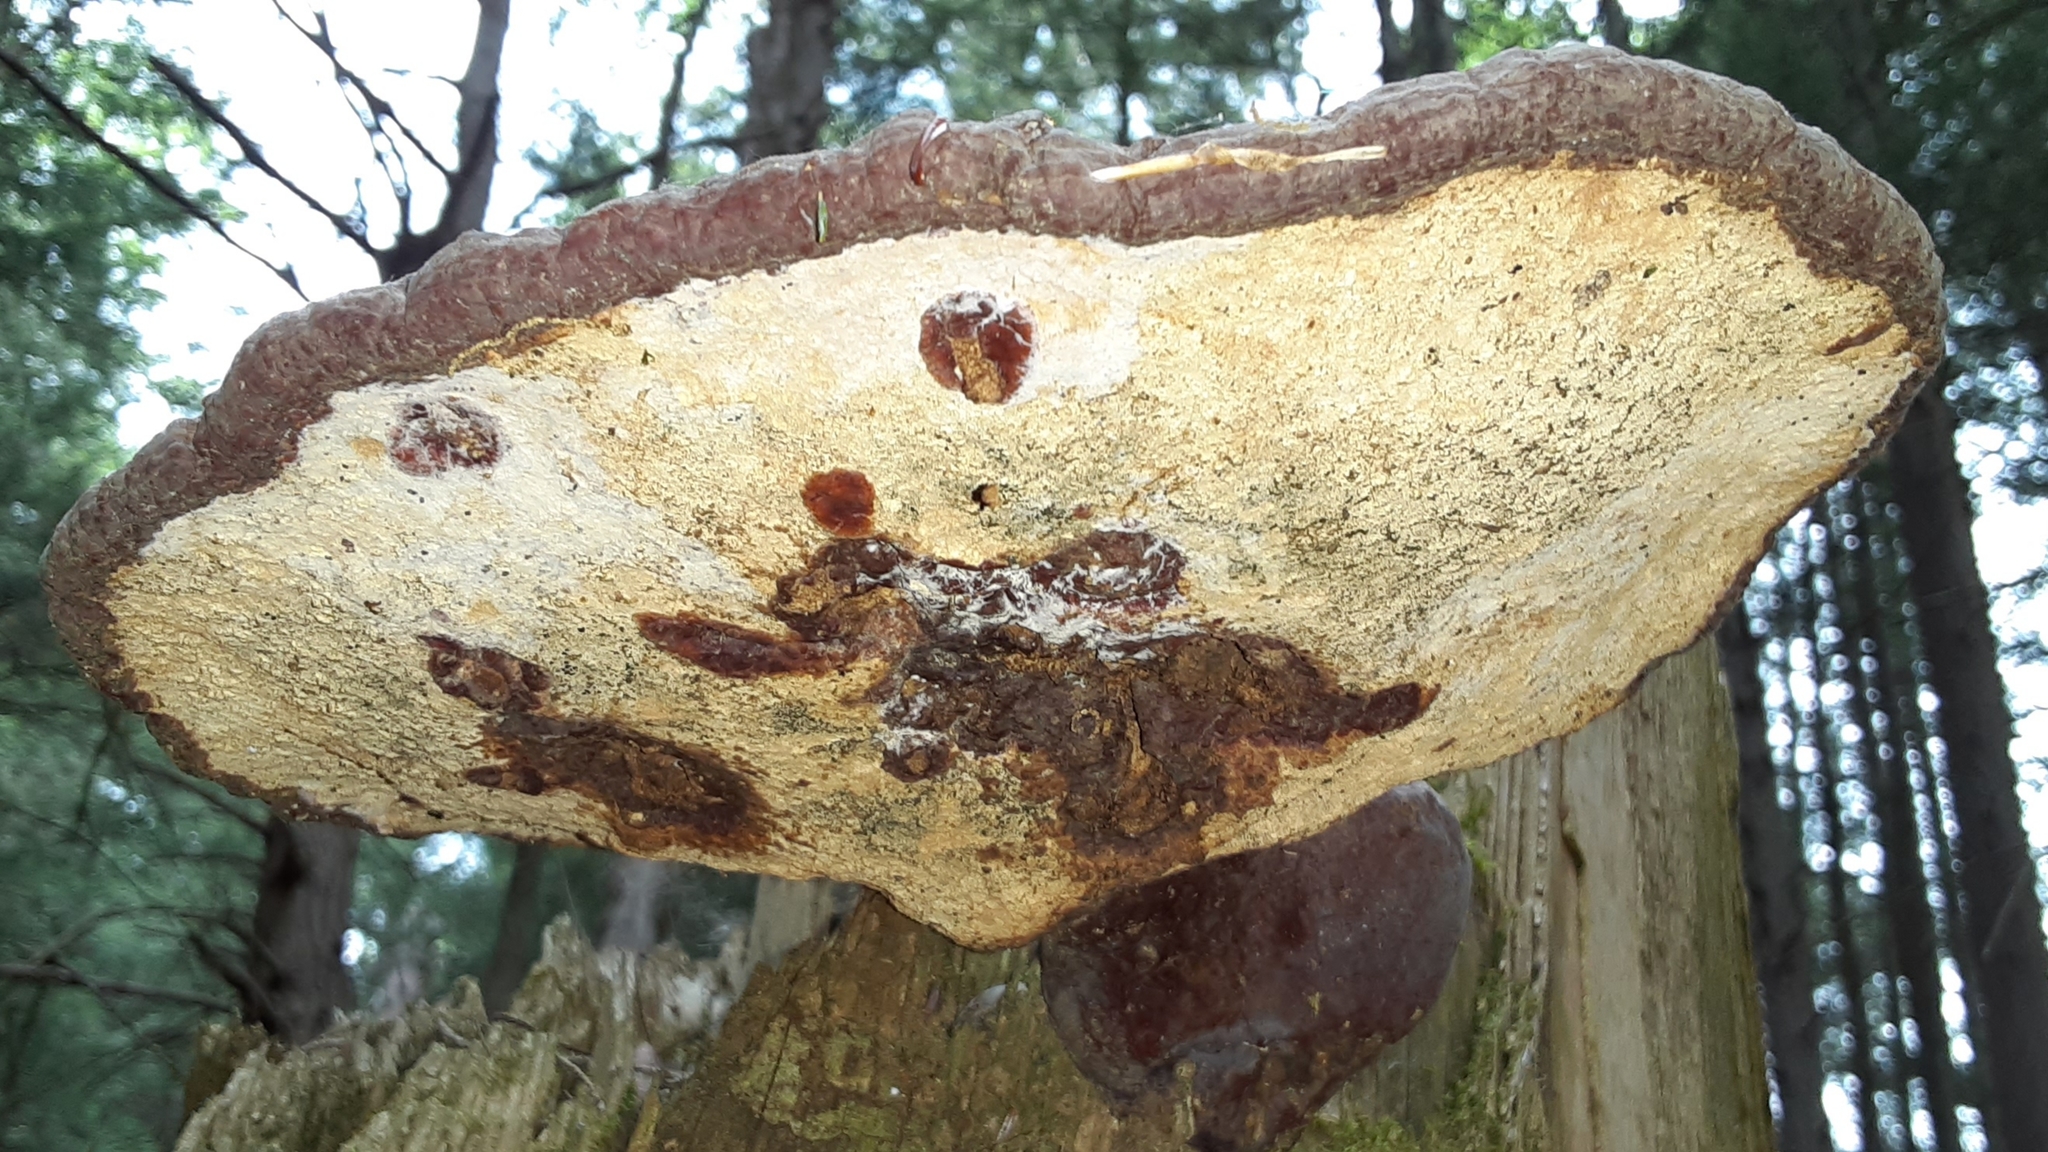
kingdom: Fungi
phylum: Basidiomycota
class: Agaricomycetes
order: Polyporales
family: Polyporaceae
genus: Ganoderma
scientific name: Ganoderma tsugae
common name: Hemlock varnish shelf
